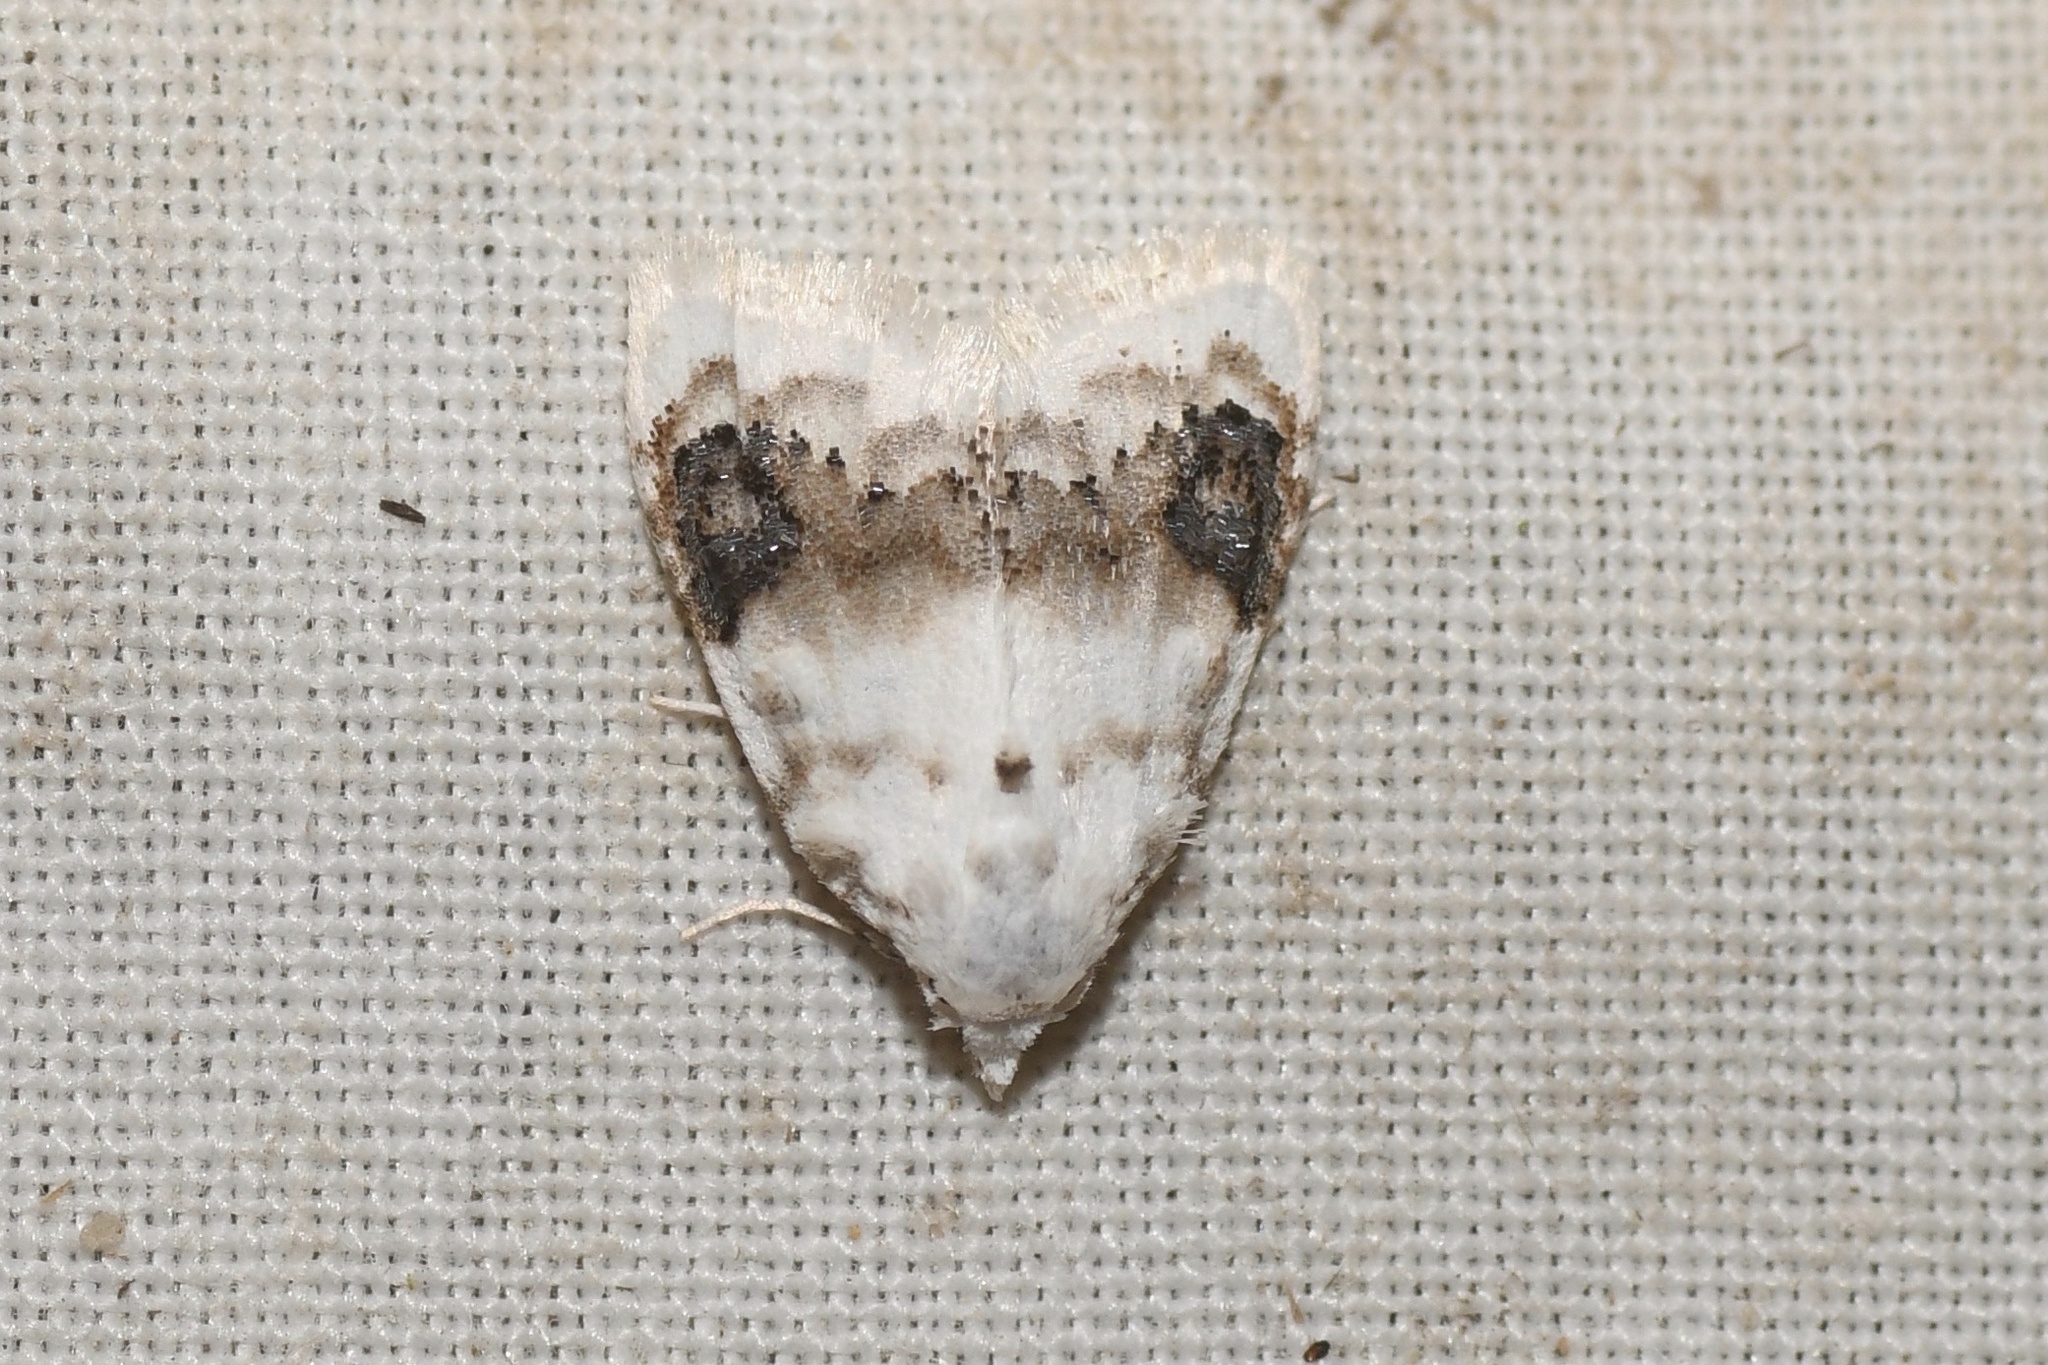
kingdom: Animalia
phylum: Arthropoda
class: Insecta
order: Lepidoptera
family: Nolidae
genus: Nola
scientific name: Nola cilicoides
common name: Blurry-patched nola moth
